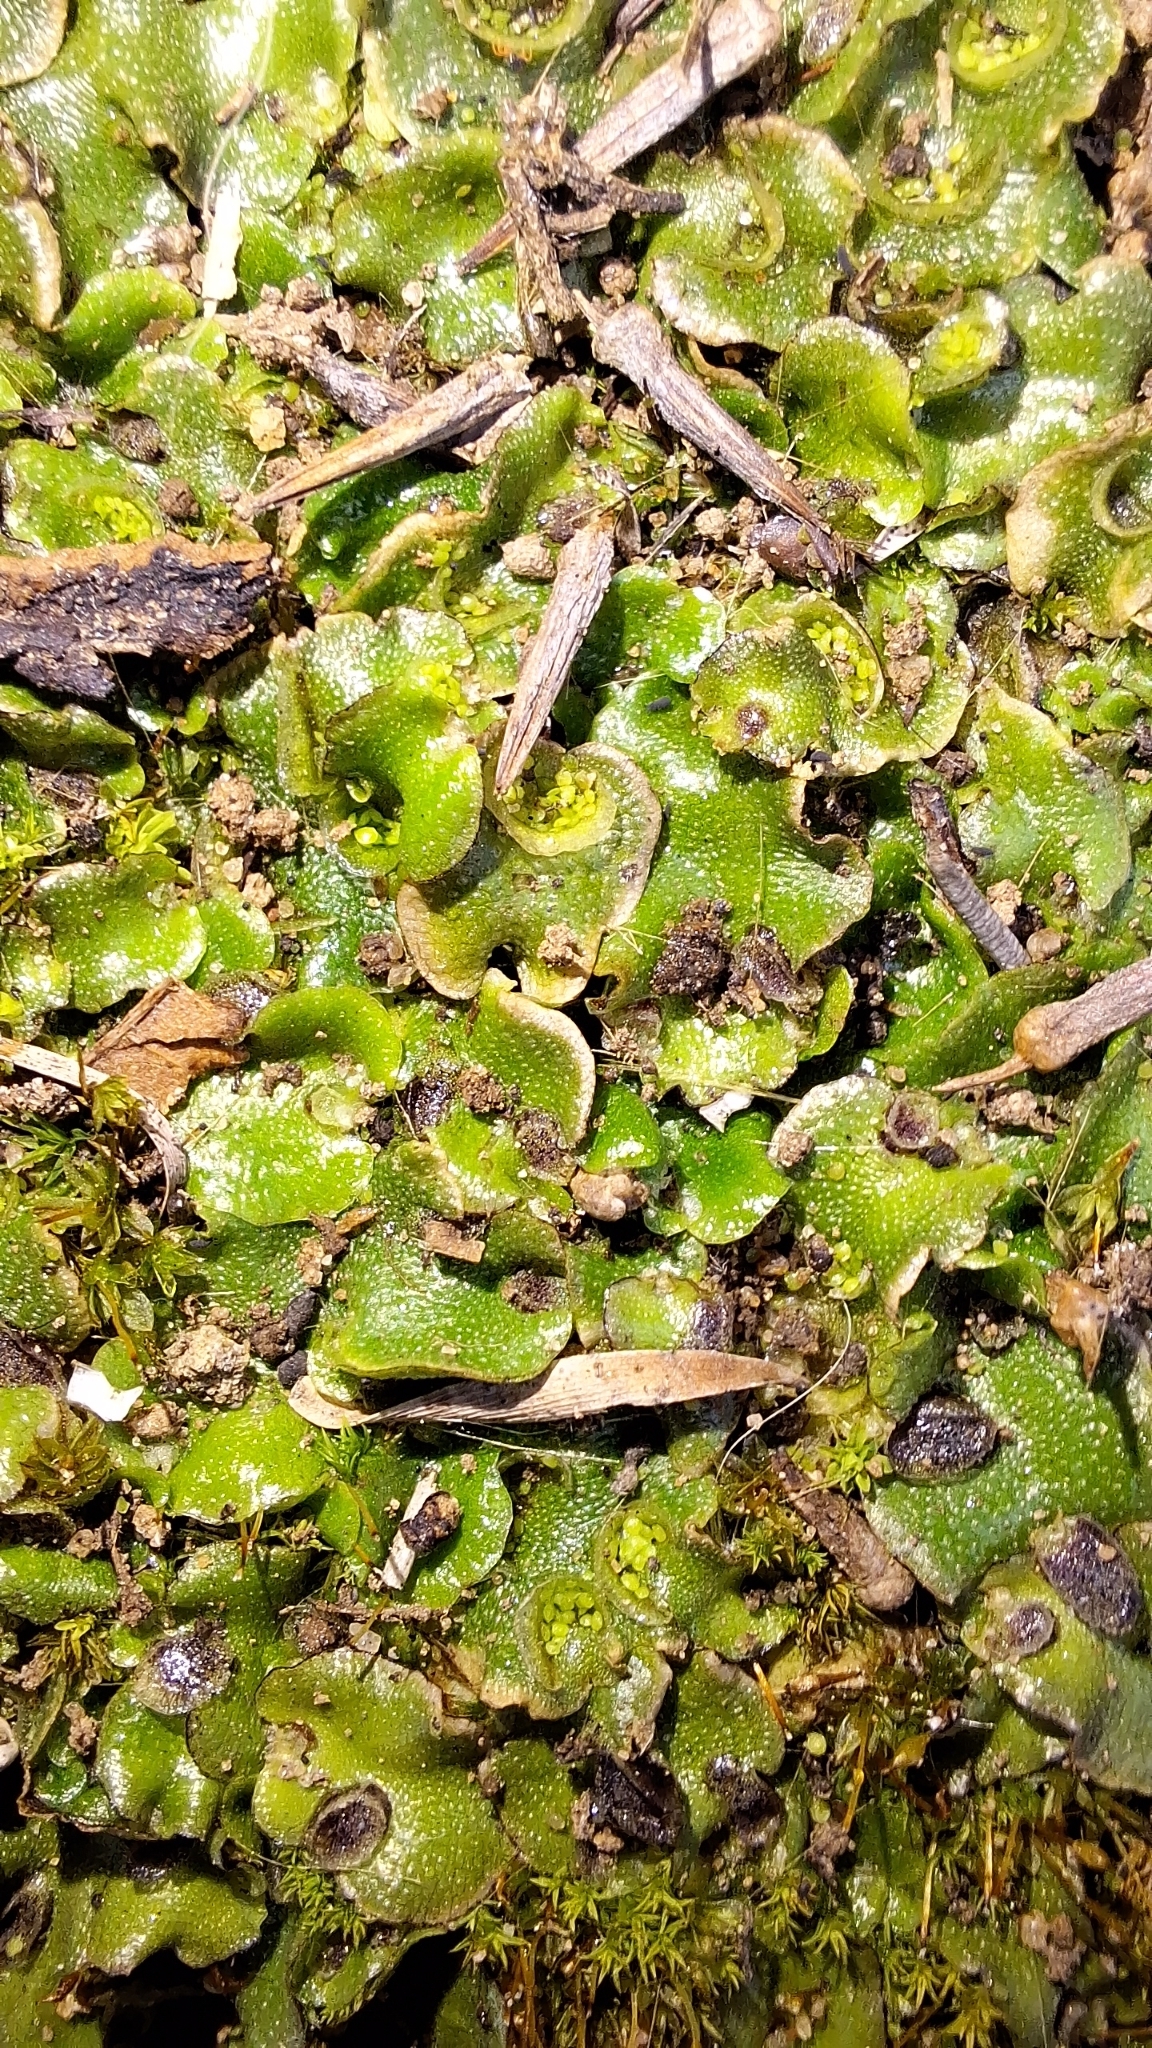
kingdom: Plantae
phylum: Marchantiophyta
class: Marchantiopsida
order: Lunulariales
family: Lunulariaceae
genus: Lunularia
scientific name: Lunularia cruciata
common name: Crescent-cup liverwort
